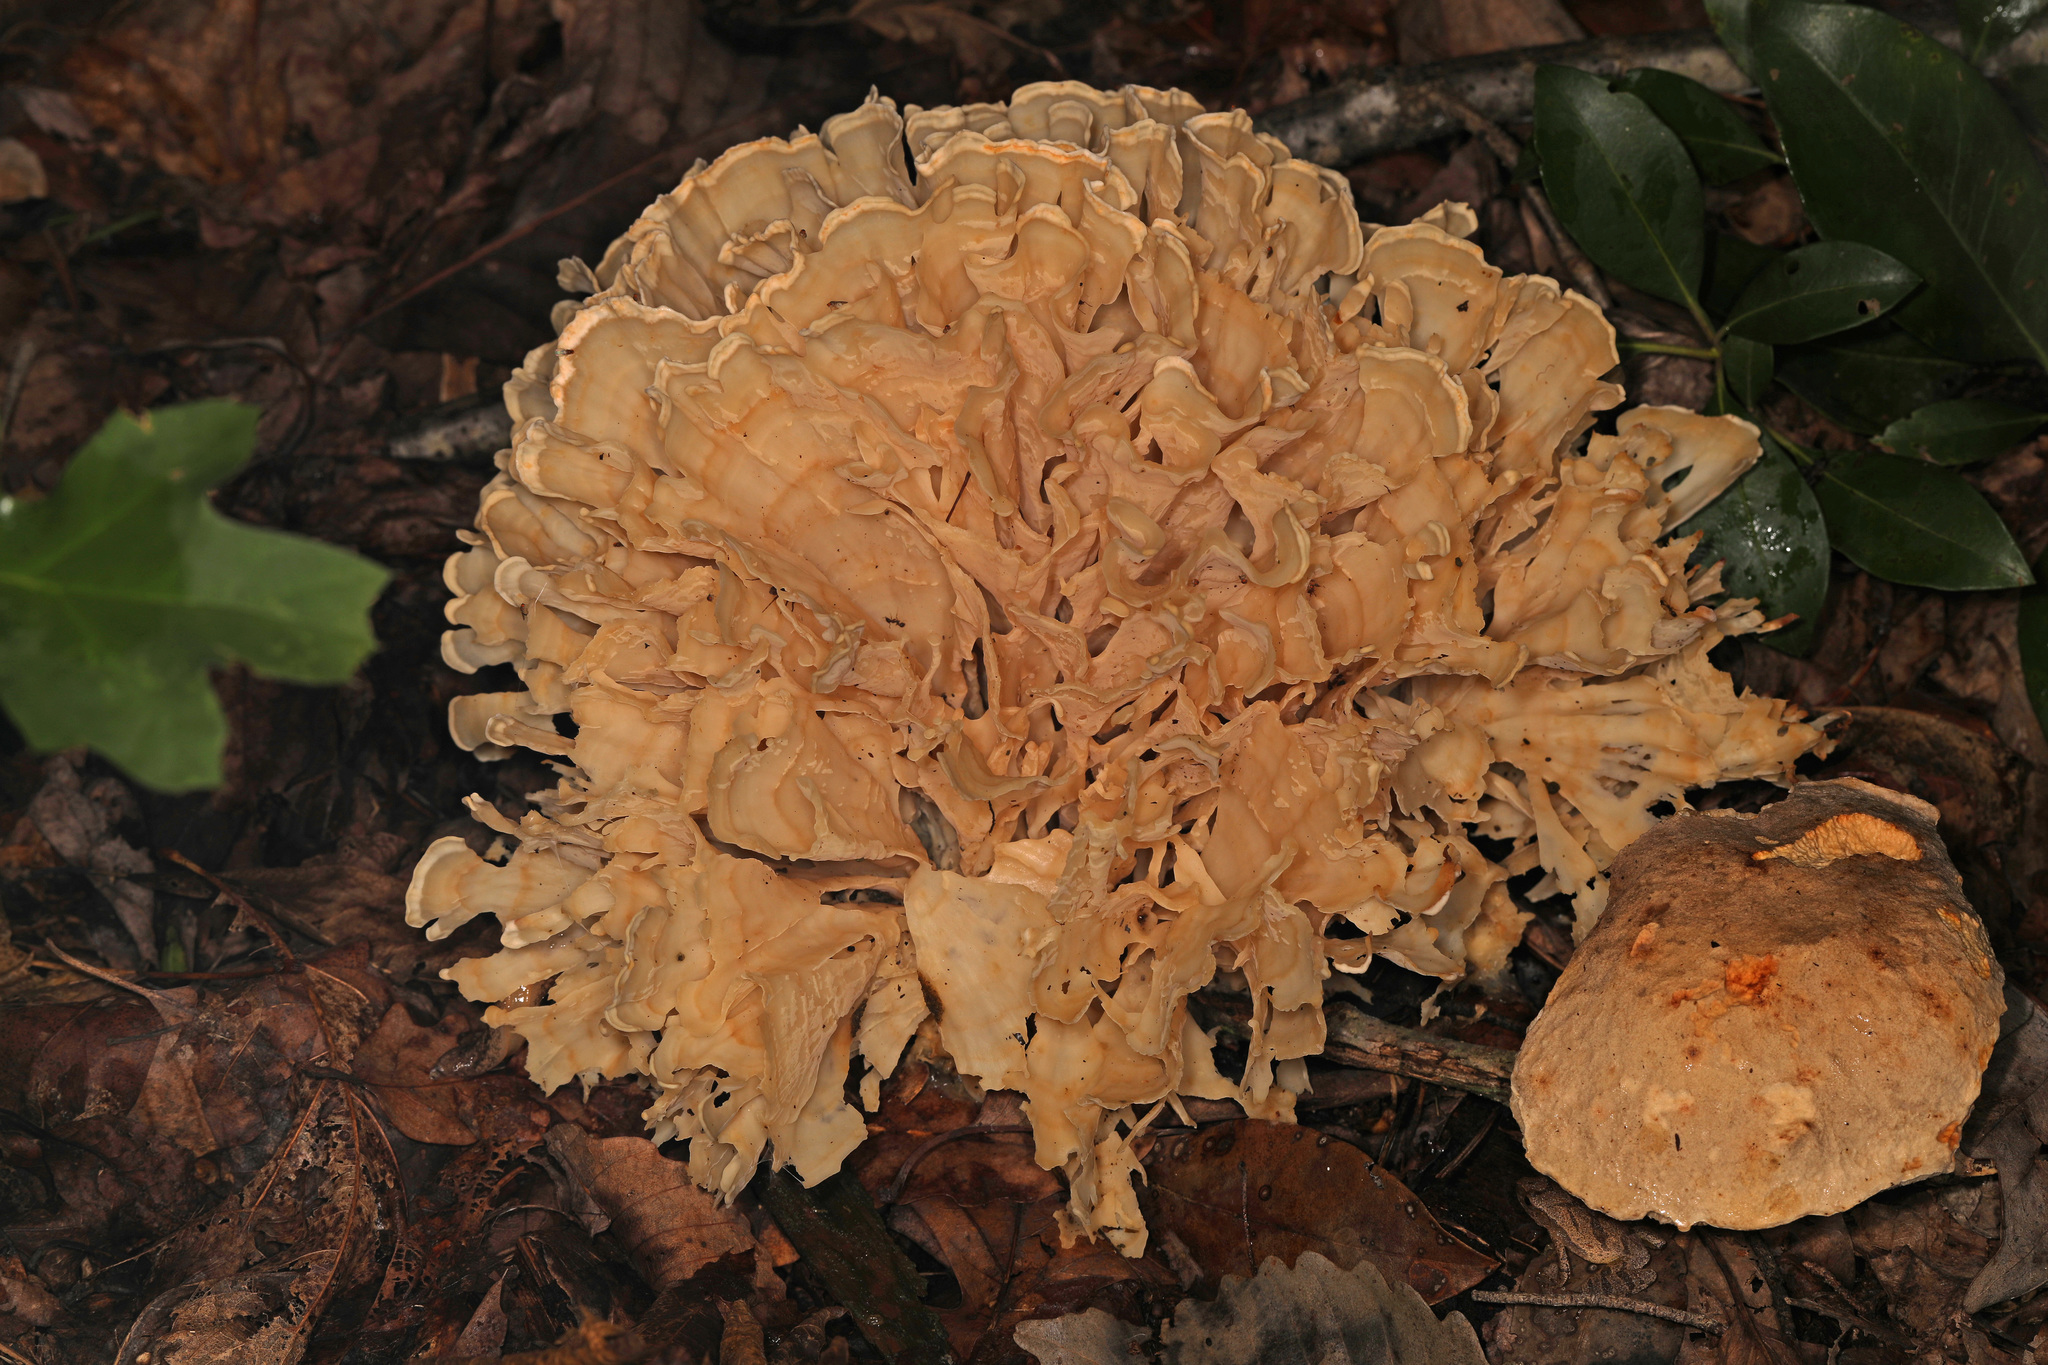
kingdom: Fungi
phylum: Basidiomycota
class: Agaricomycetes
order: Polyporales
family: Sparassidaceae
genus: Sparassis
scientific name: Sparassis spathulata
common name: Eastern cauliflower mushroom
